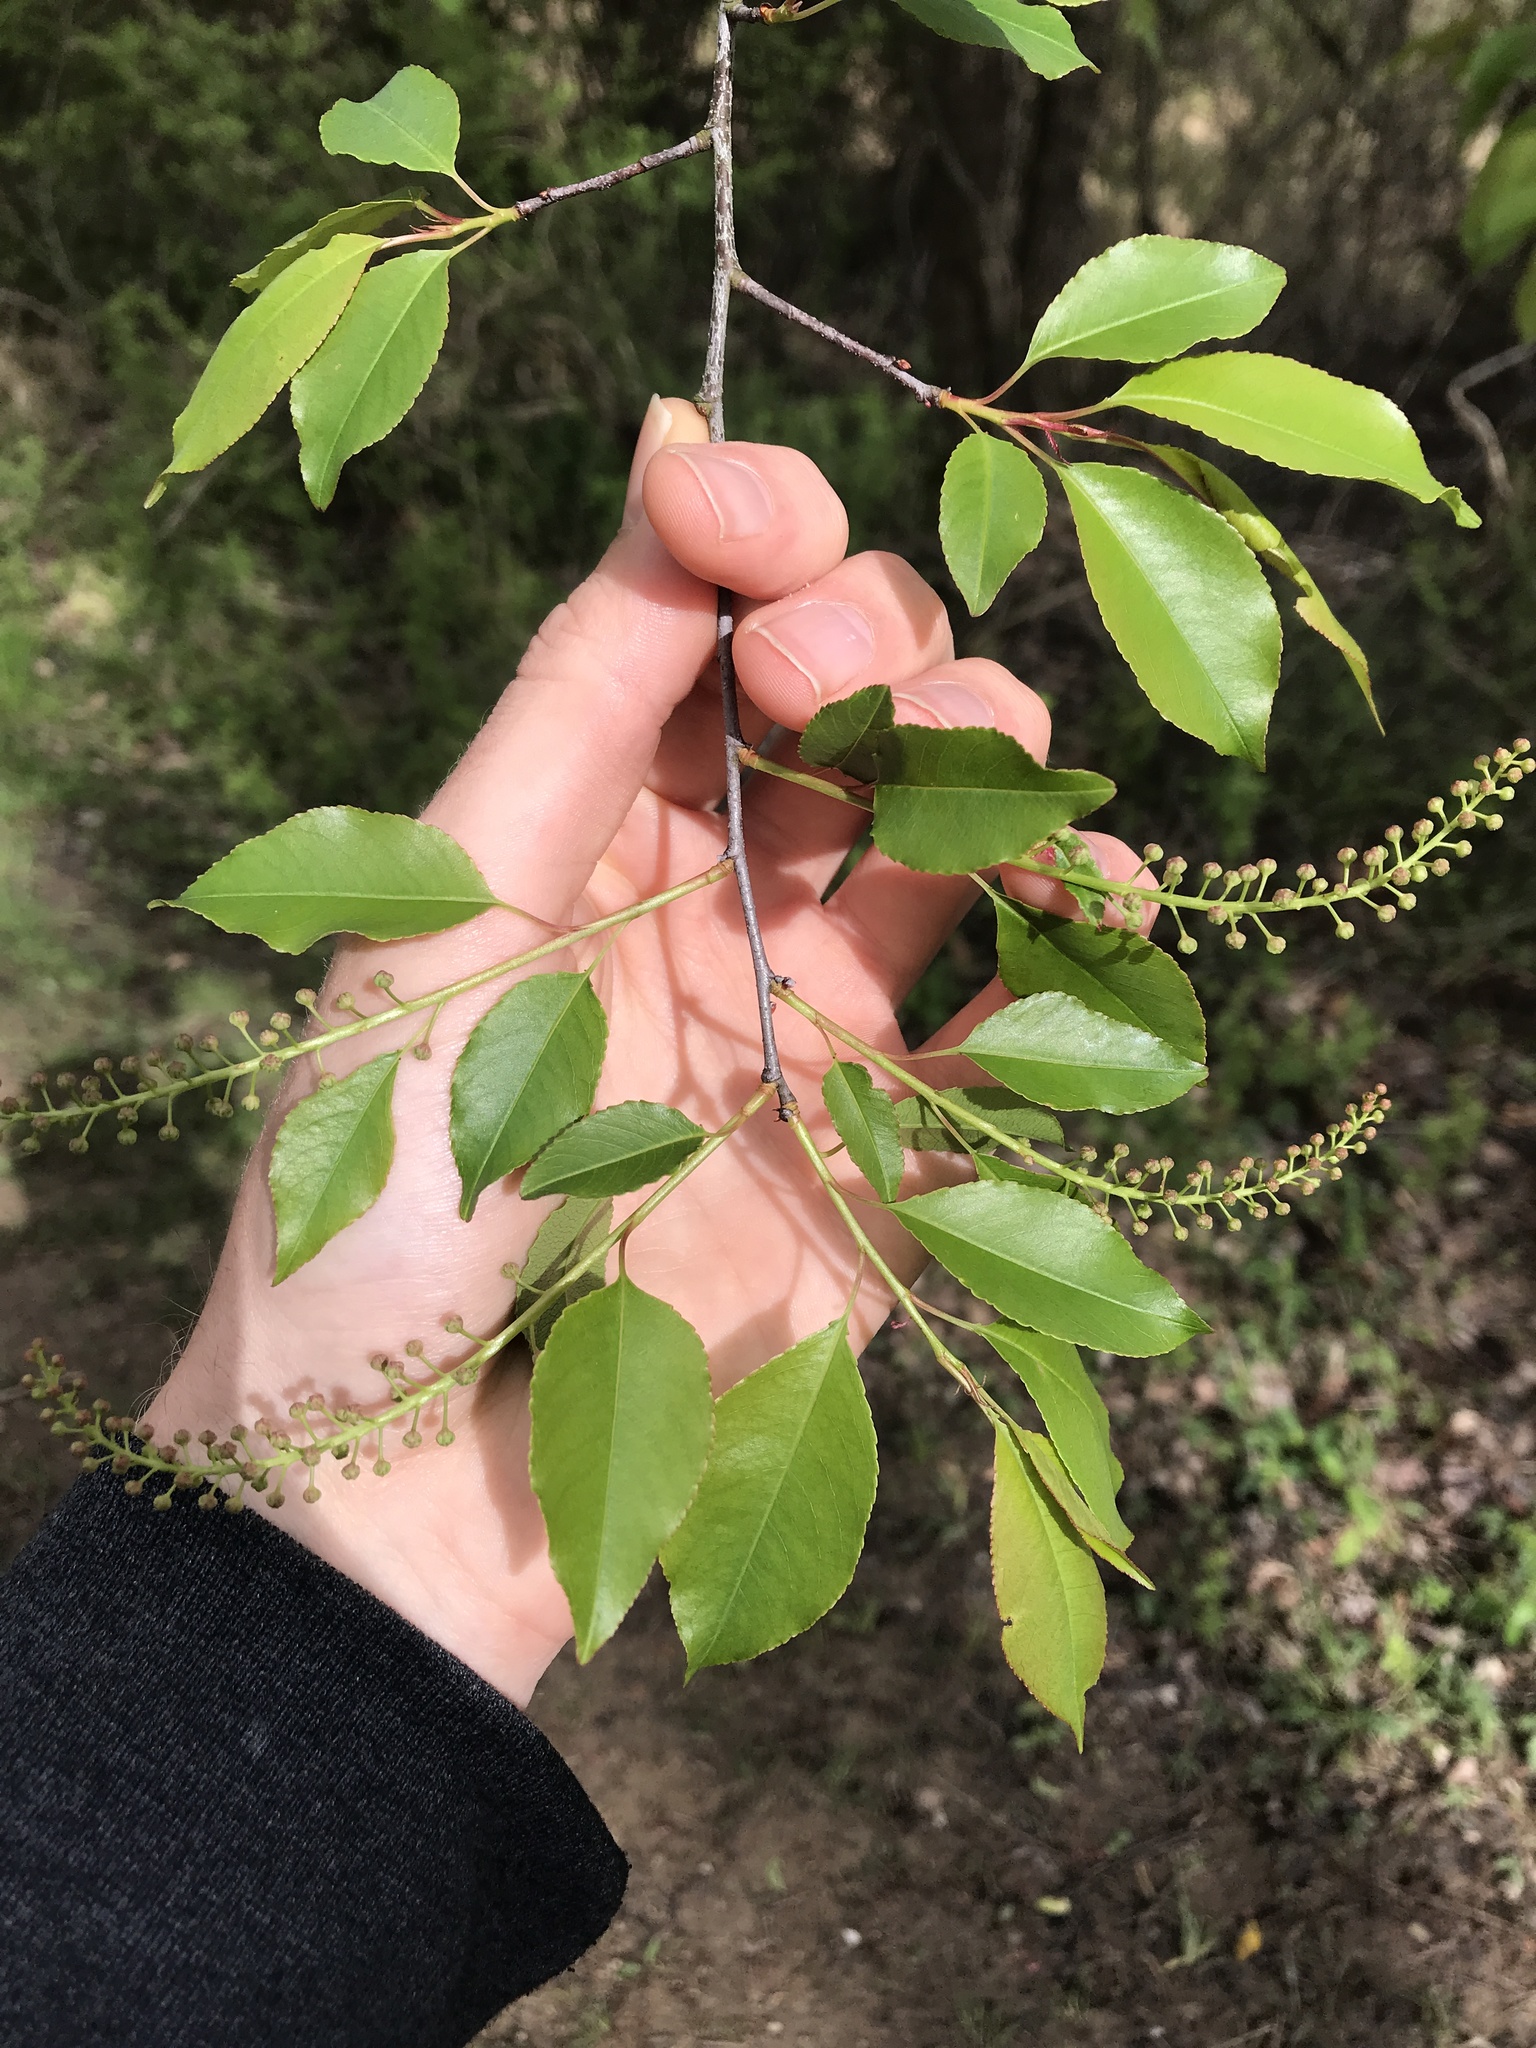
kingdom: Plantae
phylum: Tracheophyta
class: Magnoliopsida
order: Rosales
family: Rosaceae
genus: Prunus
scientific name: Prunus serotina
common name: Black cherry
